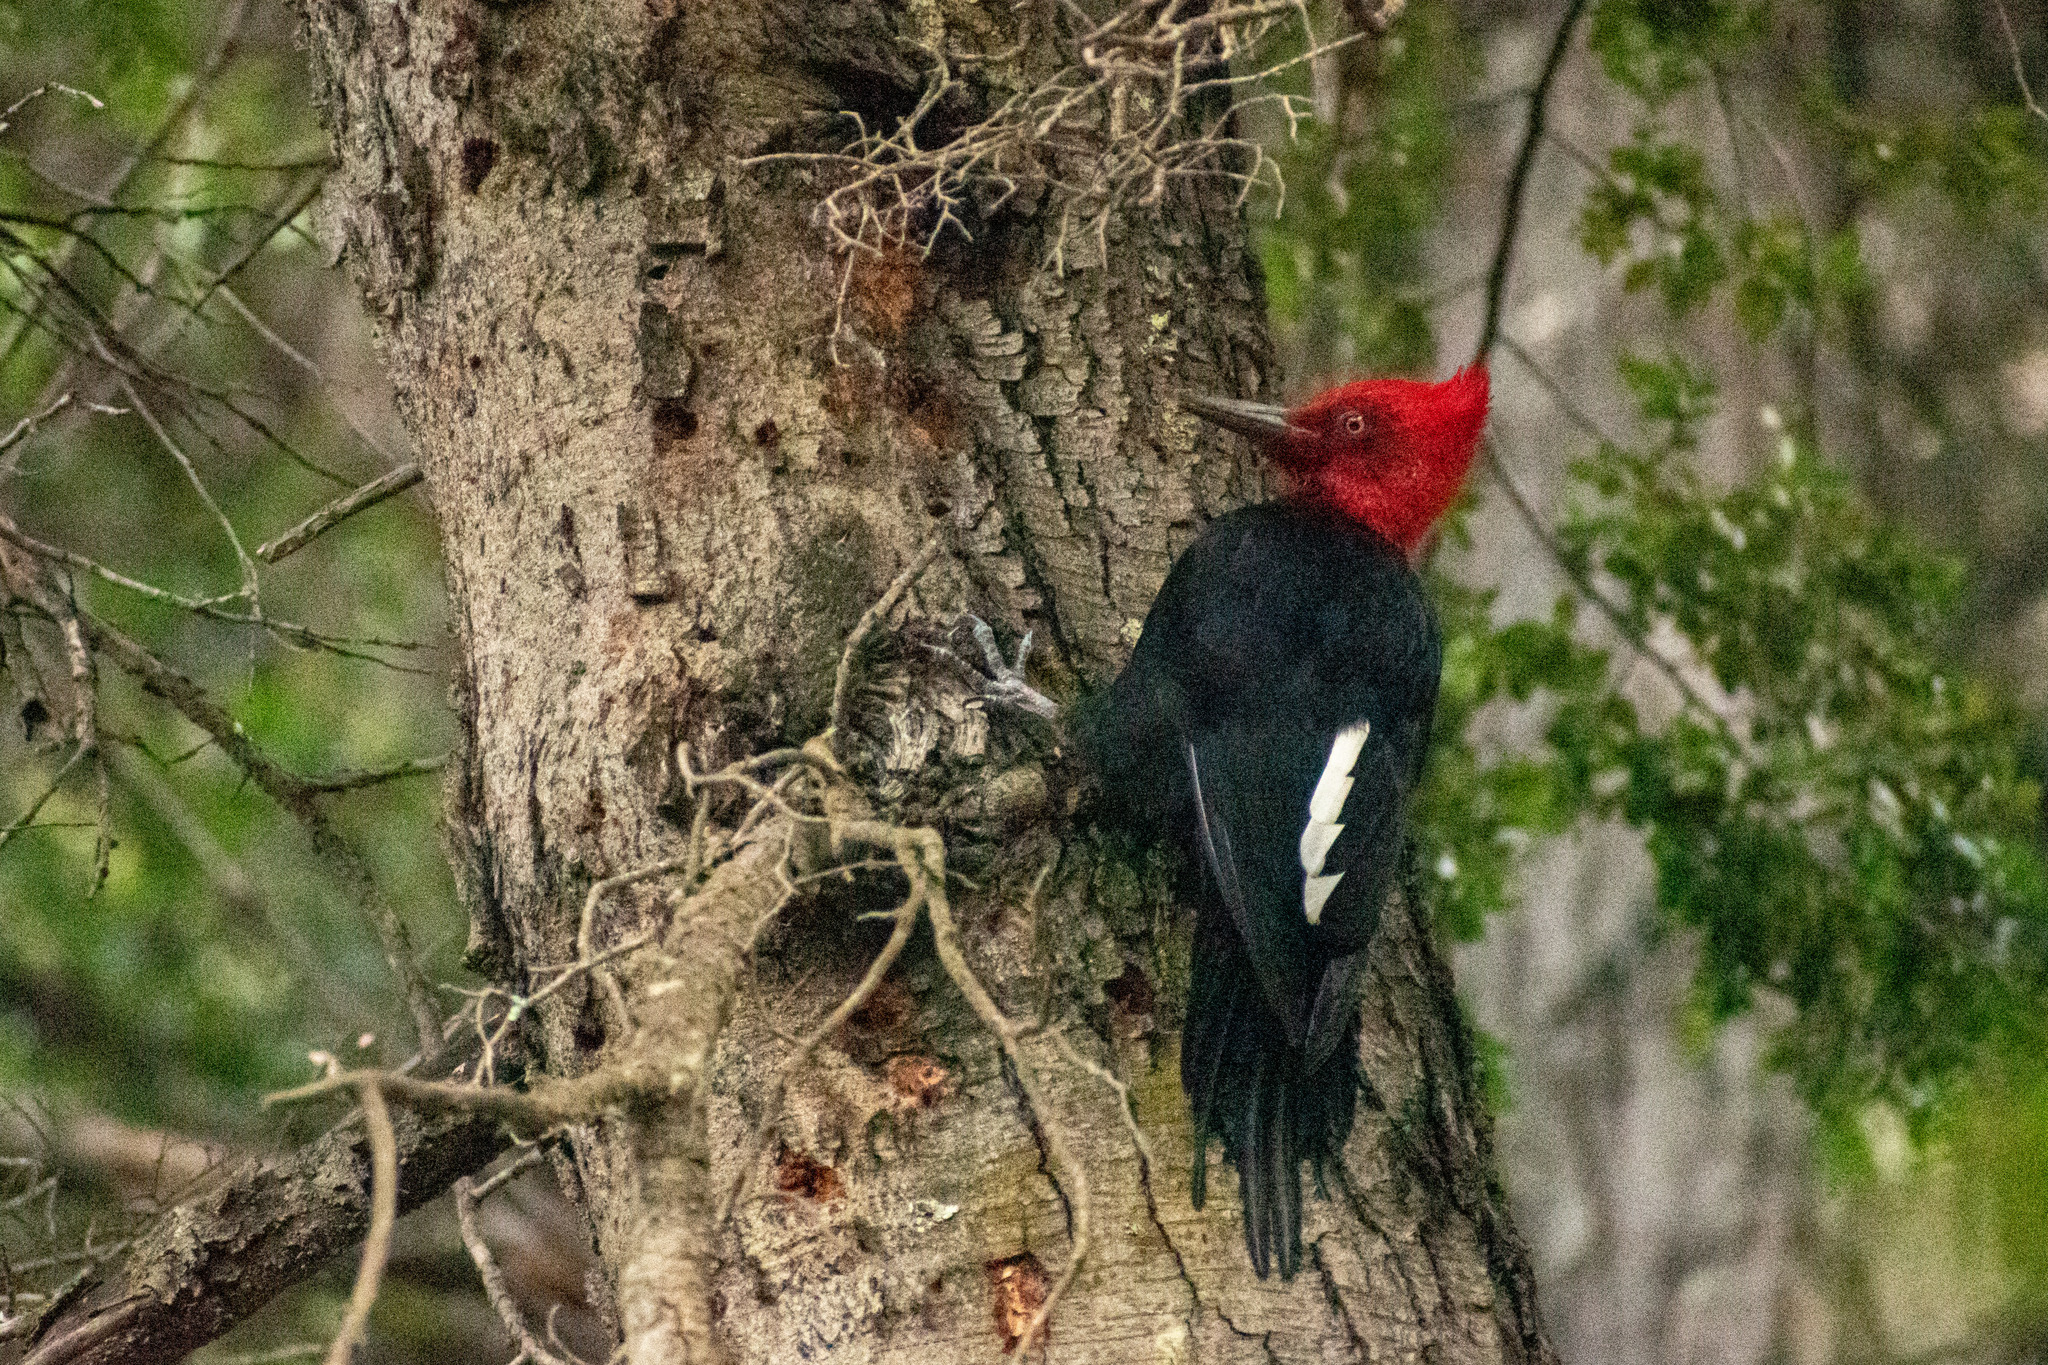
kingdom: Animalia
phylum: Chordata
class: Aves
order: Piciformes
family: Picidae
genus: Campephilus
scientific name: Campephilus magellanicus
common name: Magellanic woodpecker
